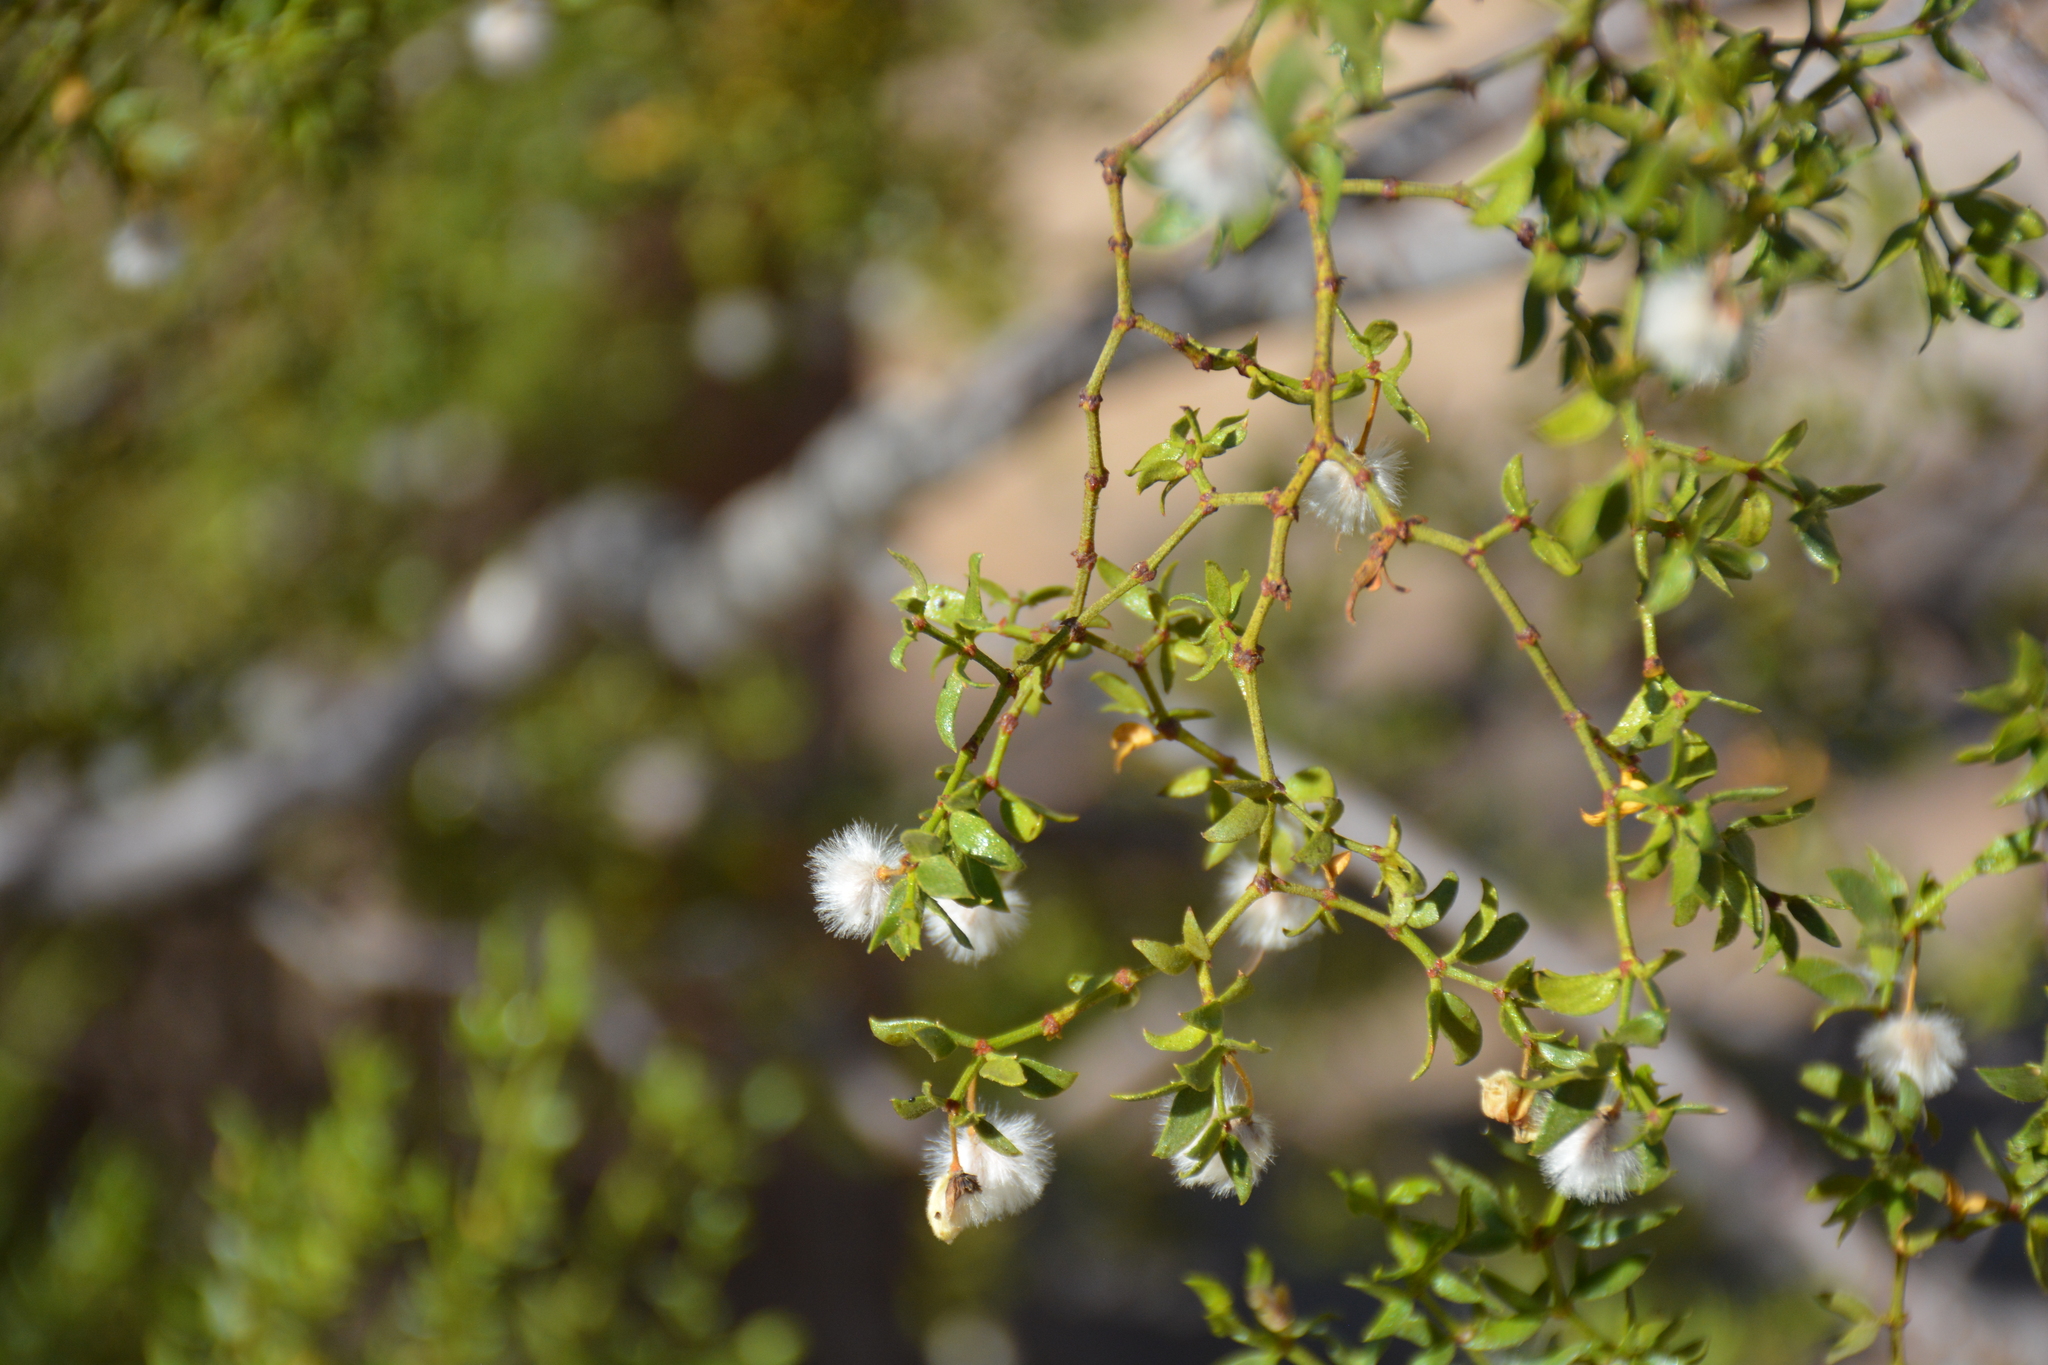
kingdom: Plantae
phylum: Tracheophyta
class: Magnoliopsida
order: Zygophyllales
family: Zygophyllaceae
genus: Larrea
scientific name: Larrea tridentata
